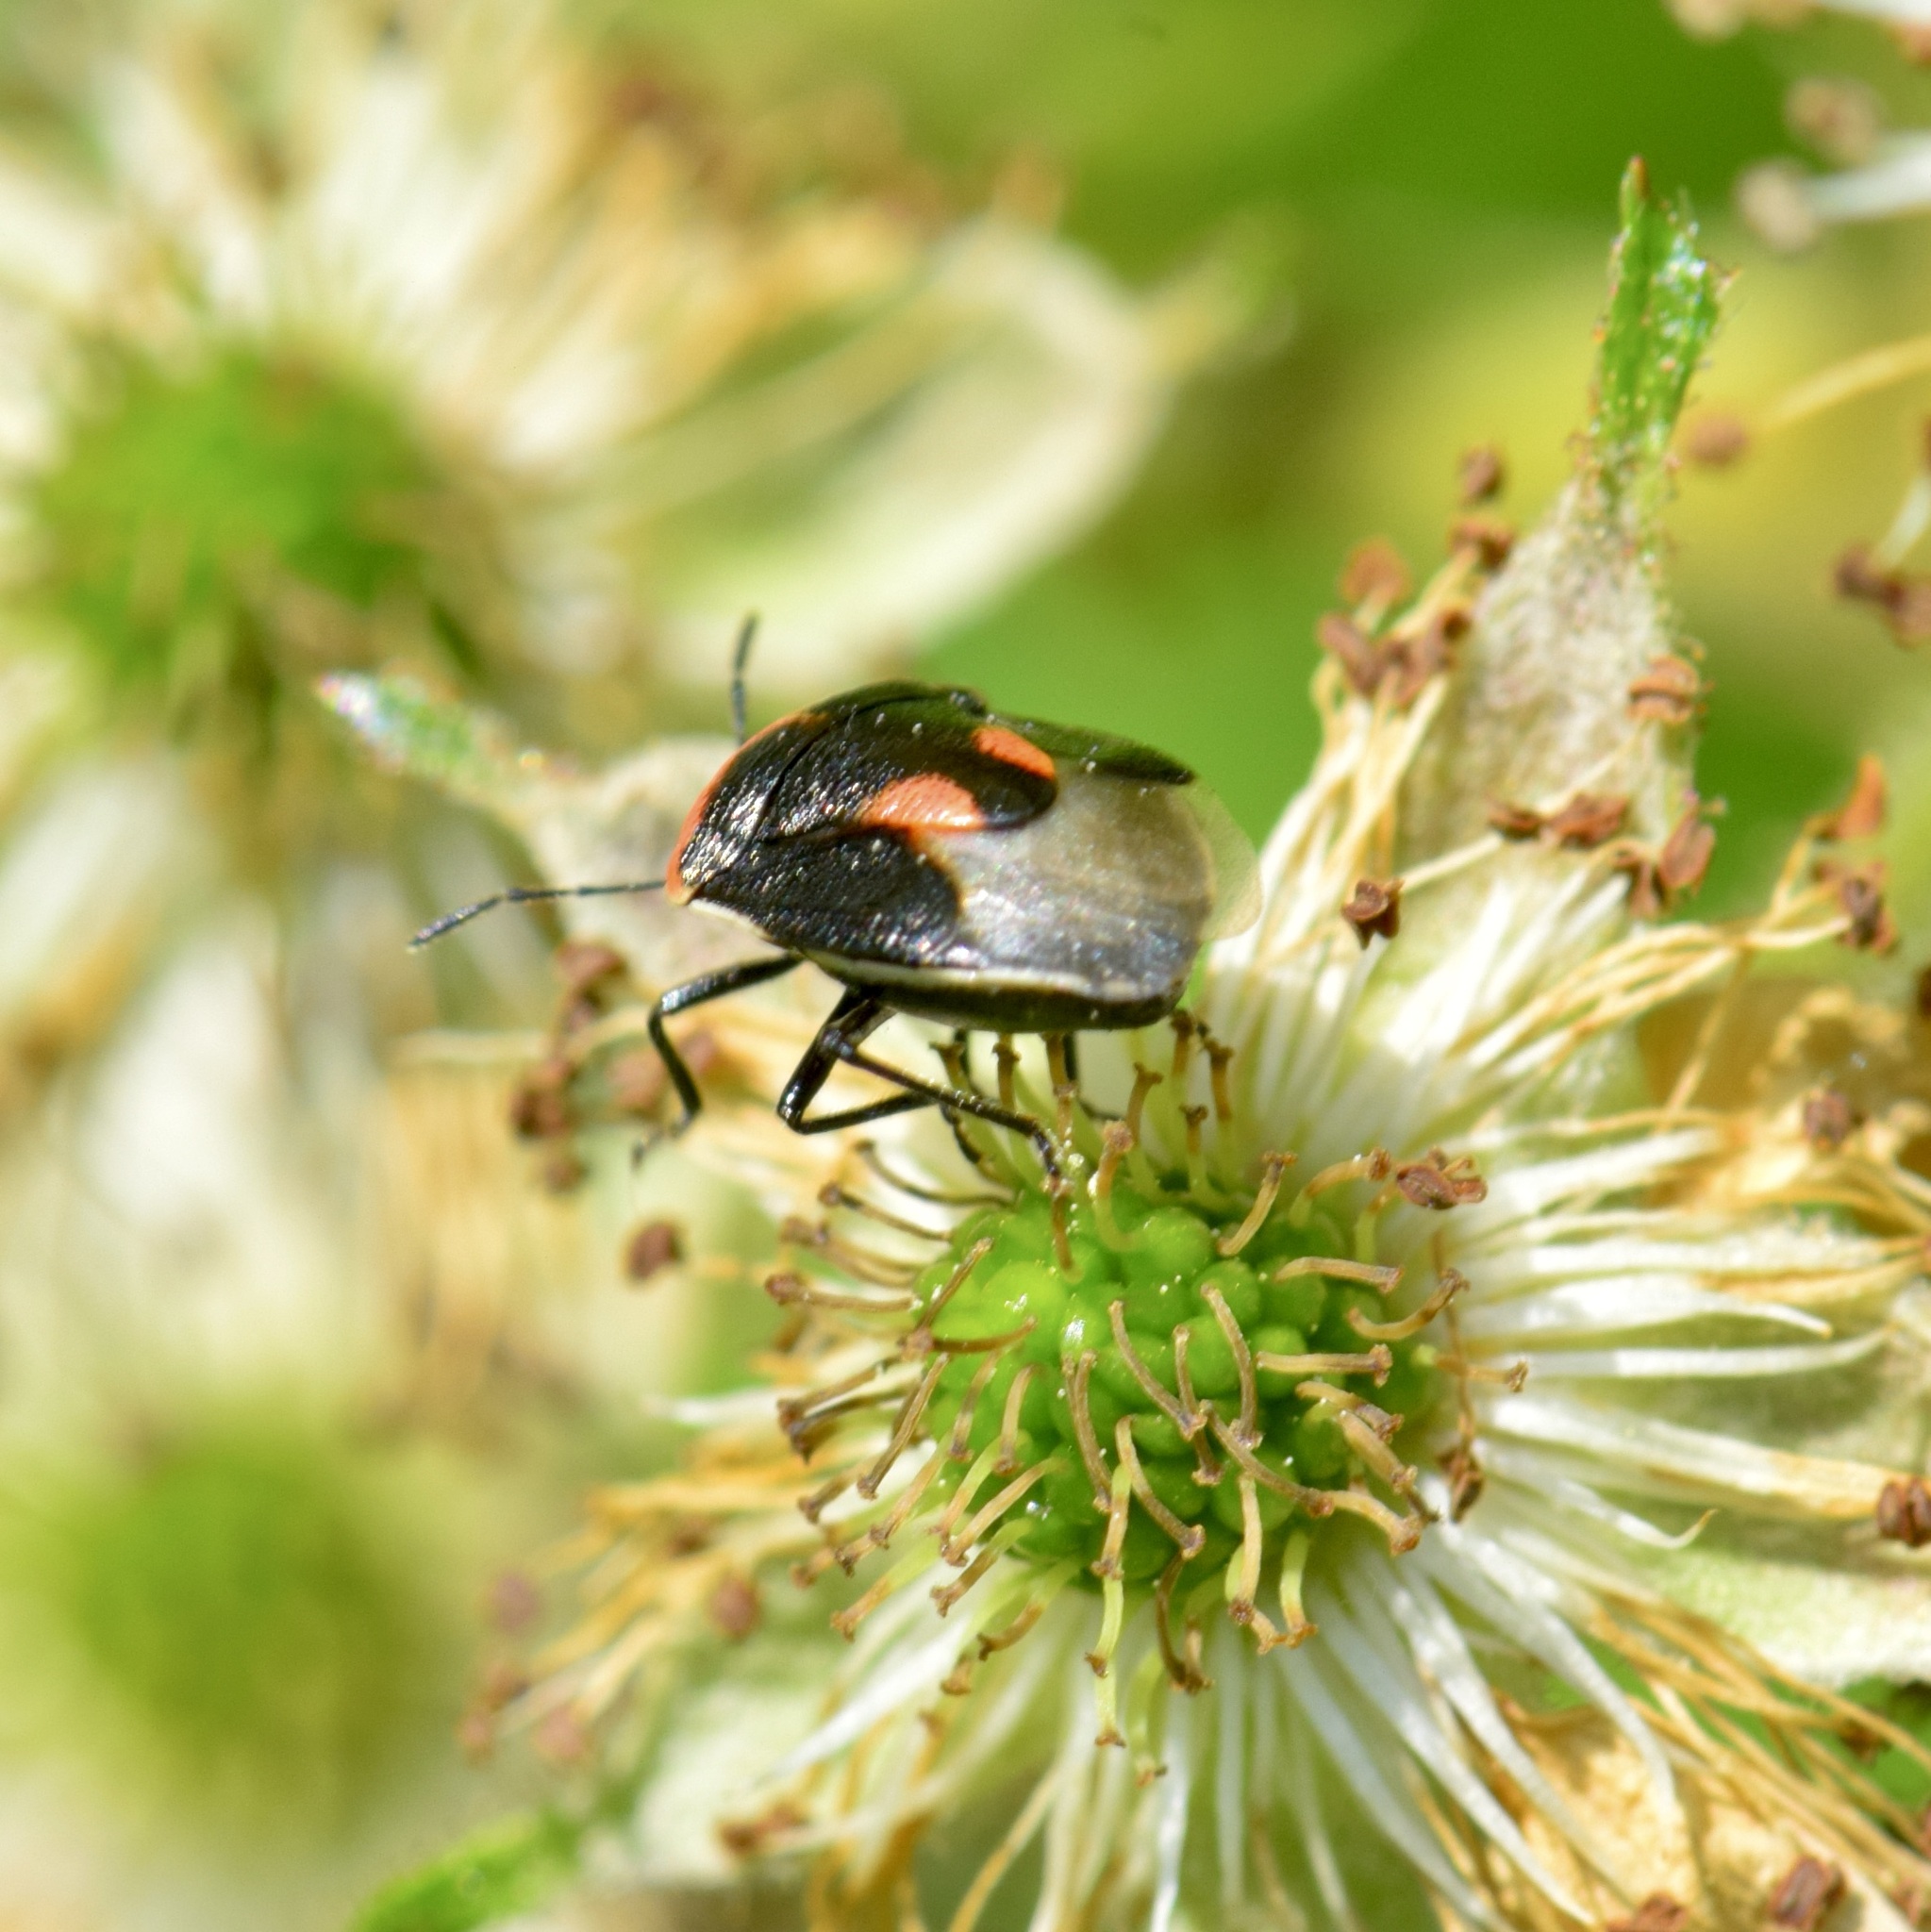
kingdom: Animalia
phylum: Arthropoda
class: Insecta
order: Hemiptera
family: Pentatomidae
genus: Cosmopepla
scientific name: Cosmopepla lintneriana
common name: Twice-stabbed stink bug
